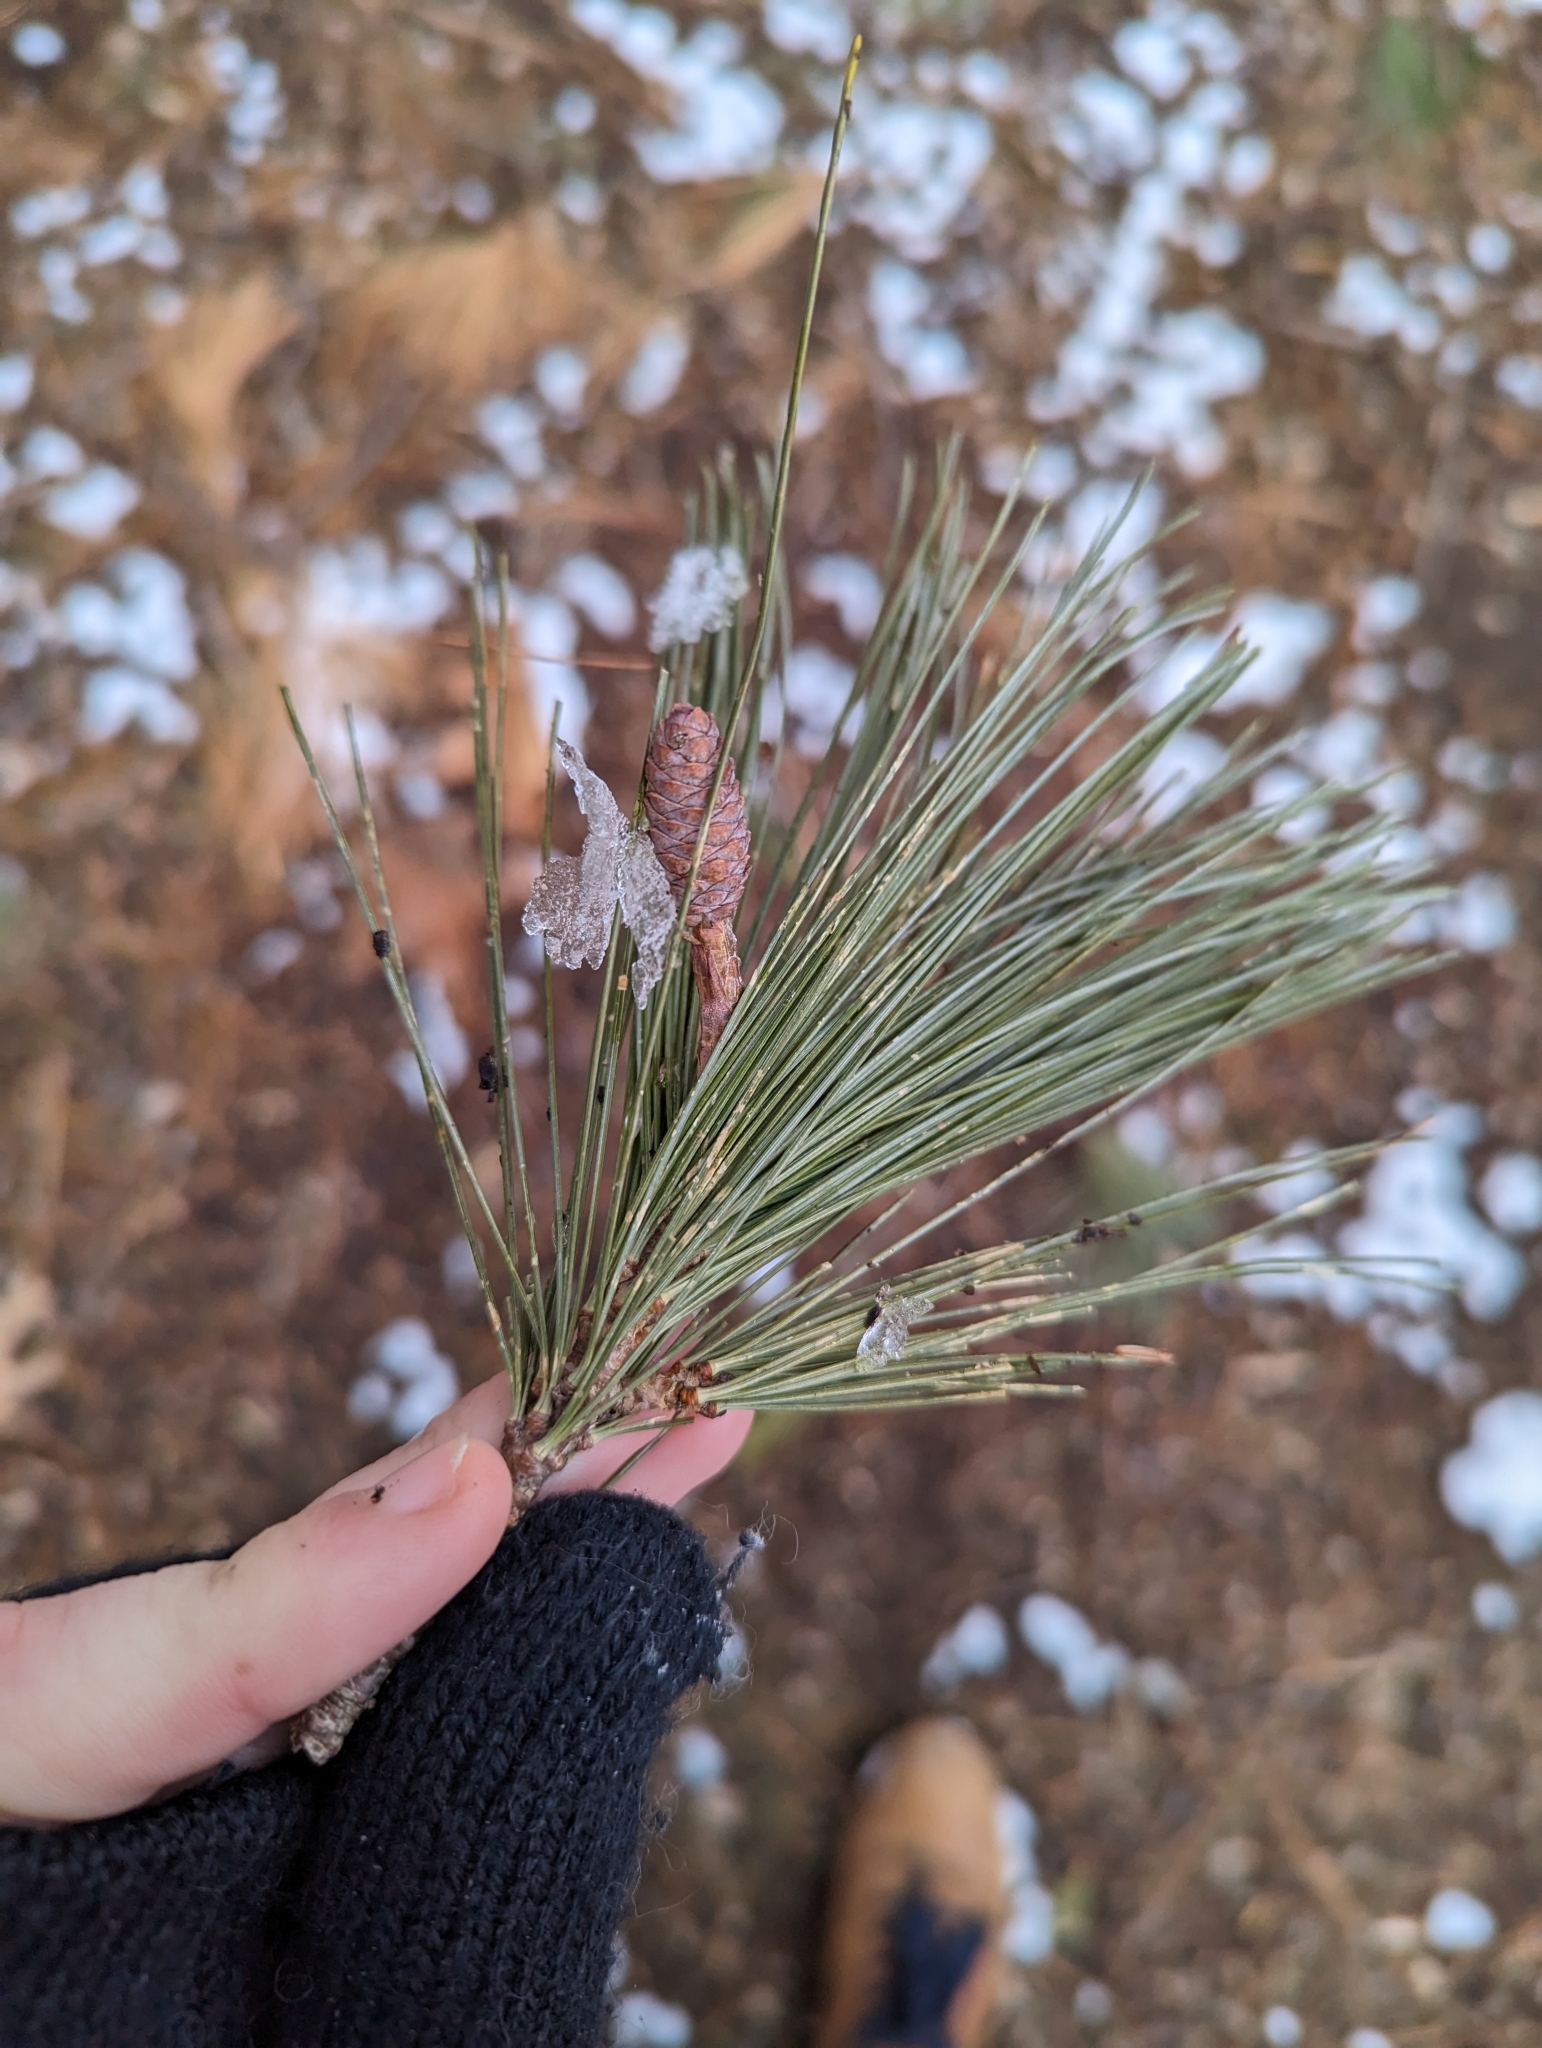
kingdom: Plantae
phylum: Tracheophyta
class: Pinopsida
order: Pinales
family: Pinaceae
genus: Pinus
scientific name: Pinus strobus
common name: Weymouth pine
